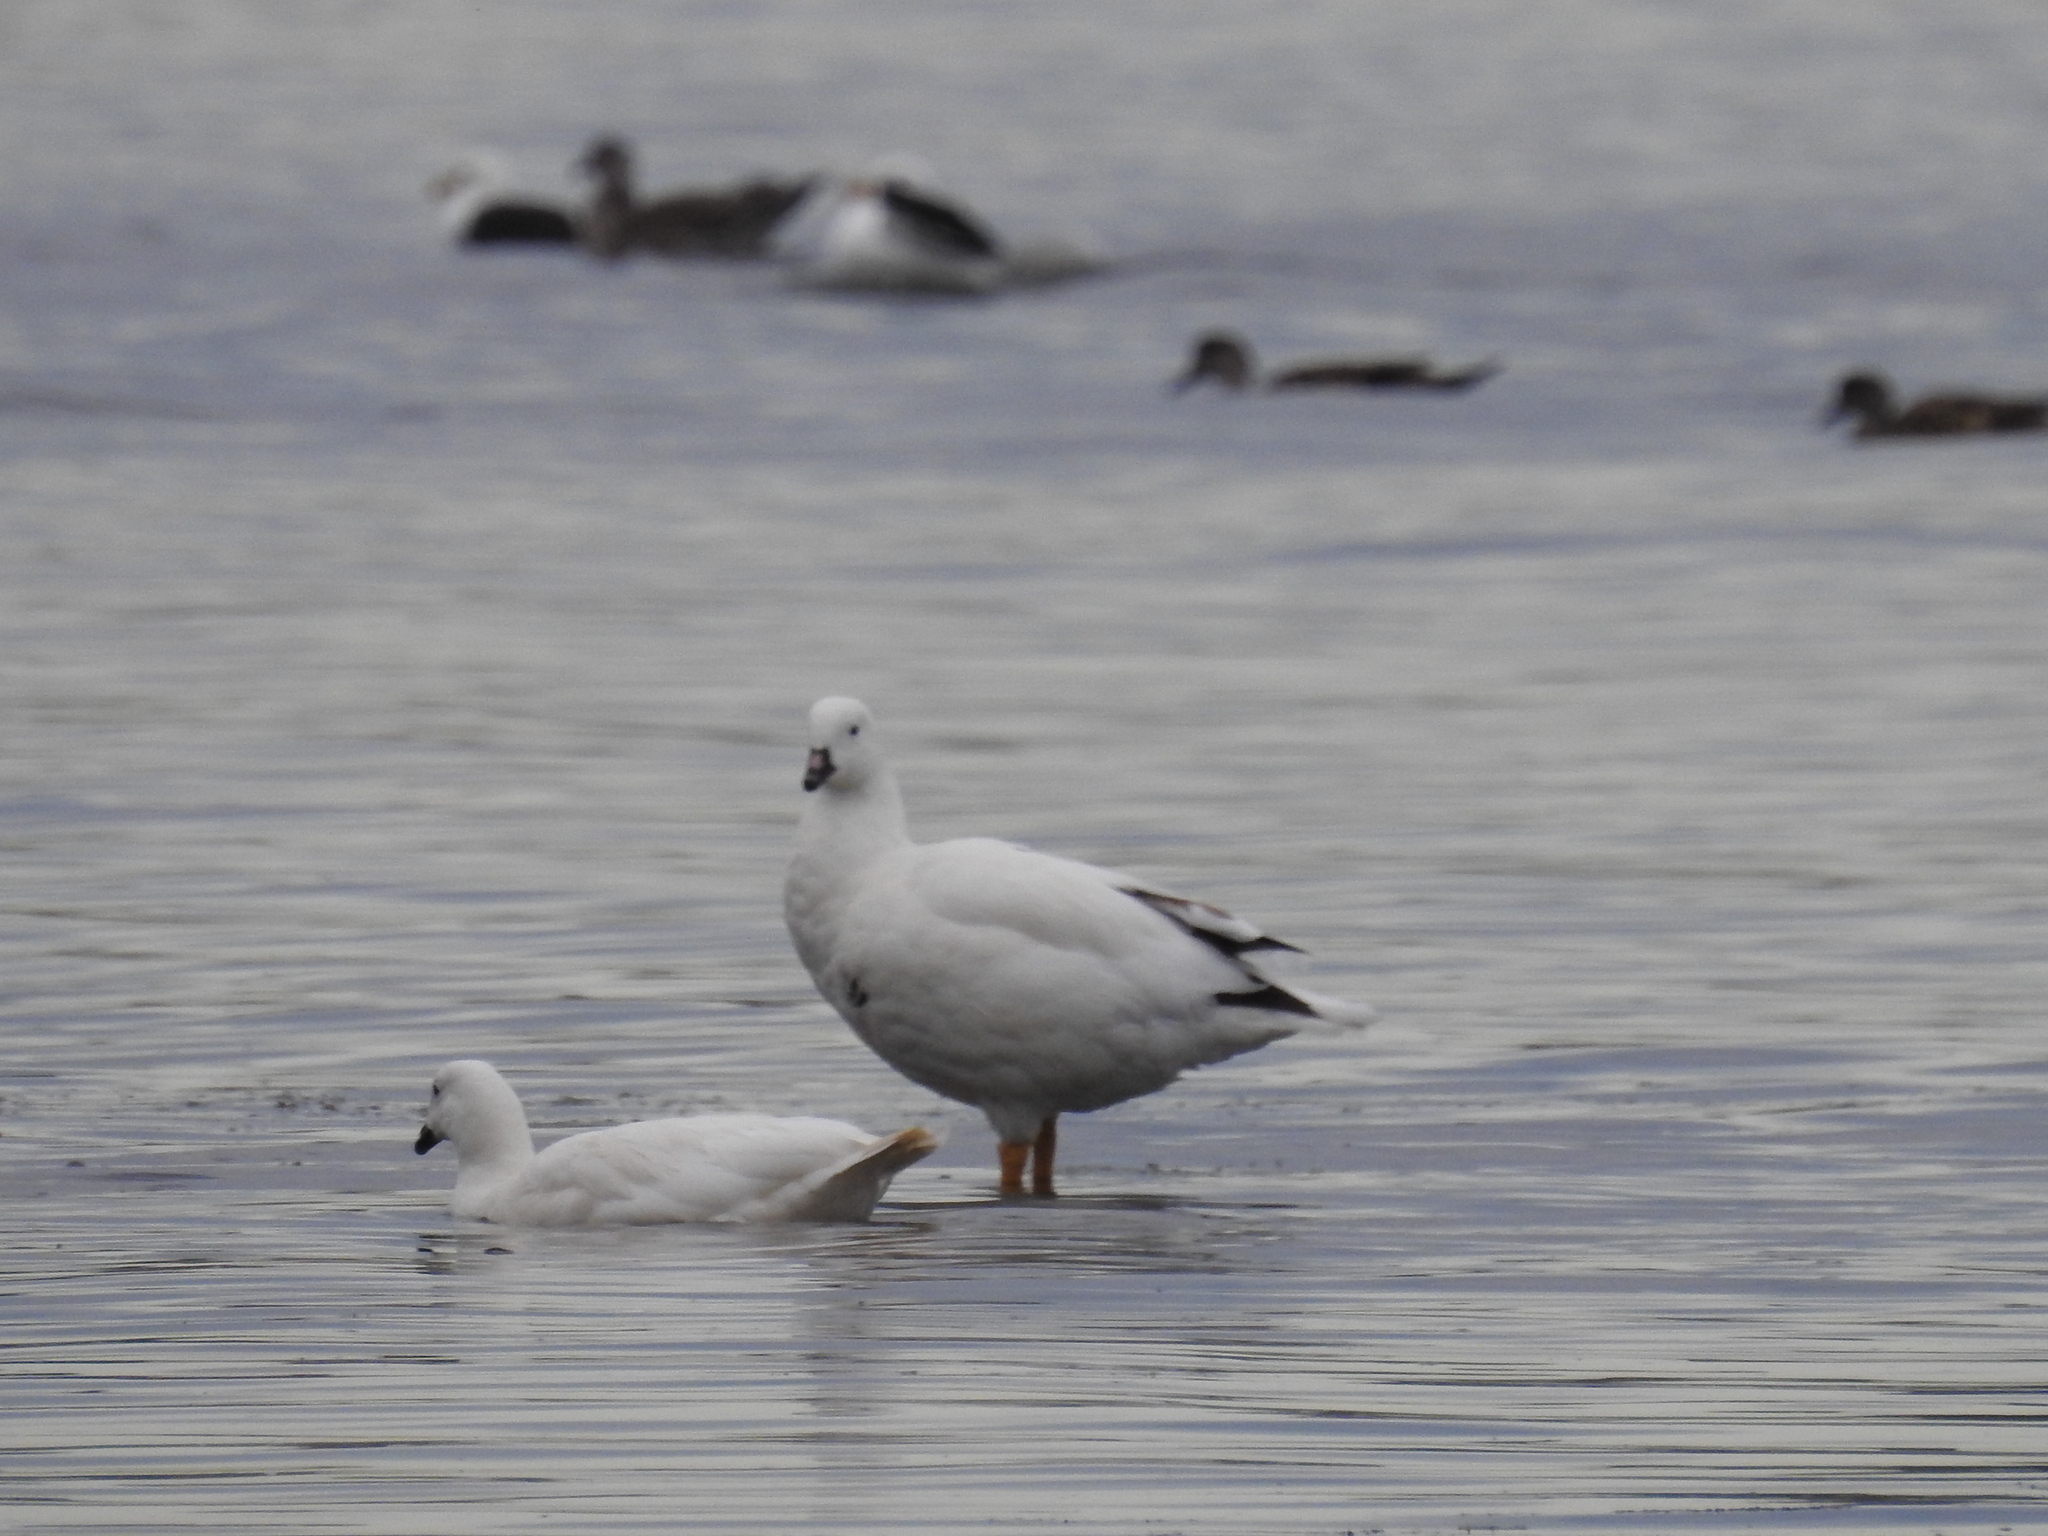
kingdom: Animalia
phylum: Chordata
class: Aves
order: Anseriformes
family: Anatidae
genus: Chloephaga
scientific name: Chloephaga hybrida
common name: Kelp goose
